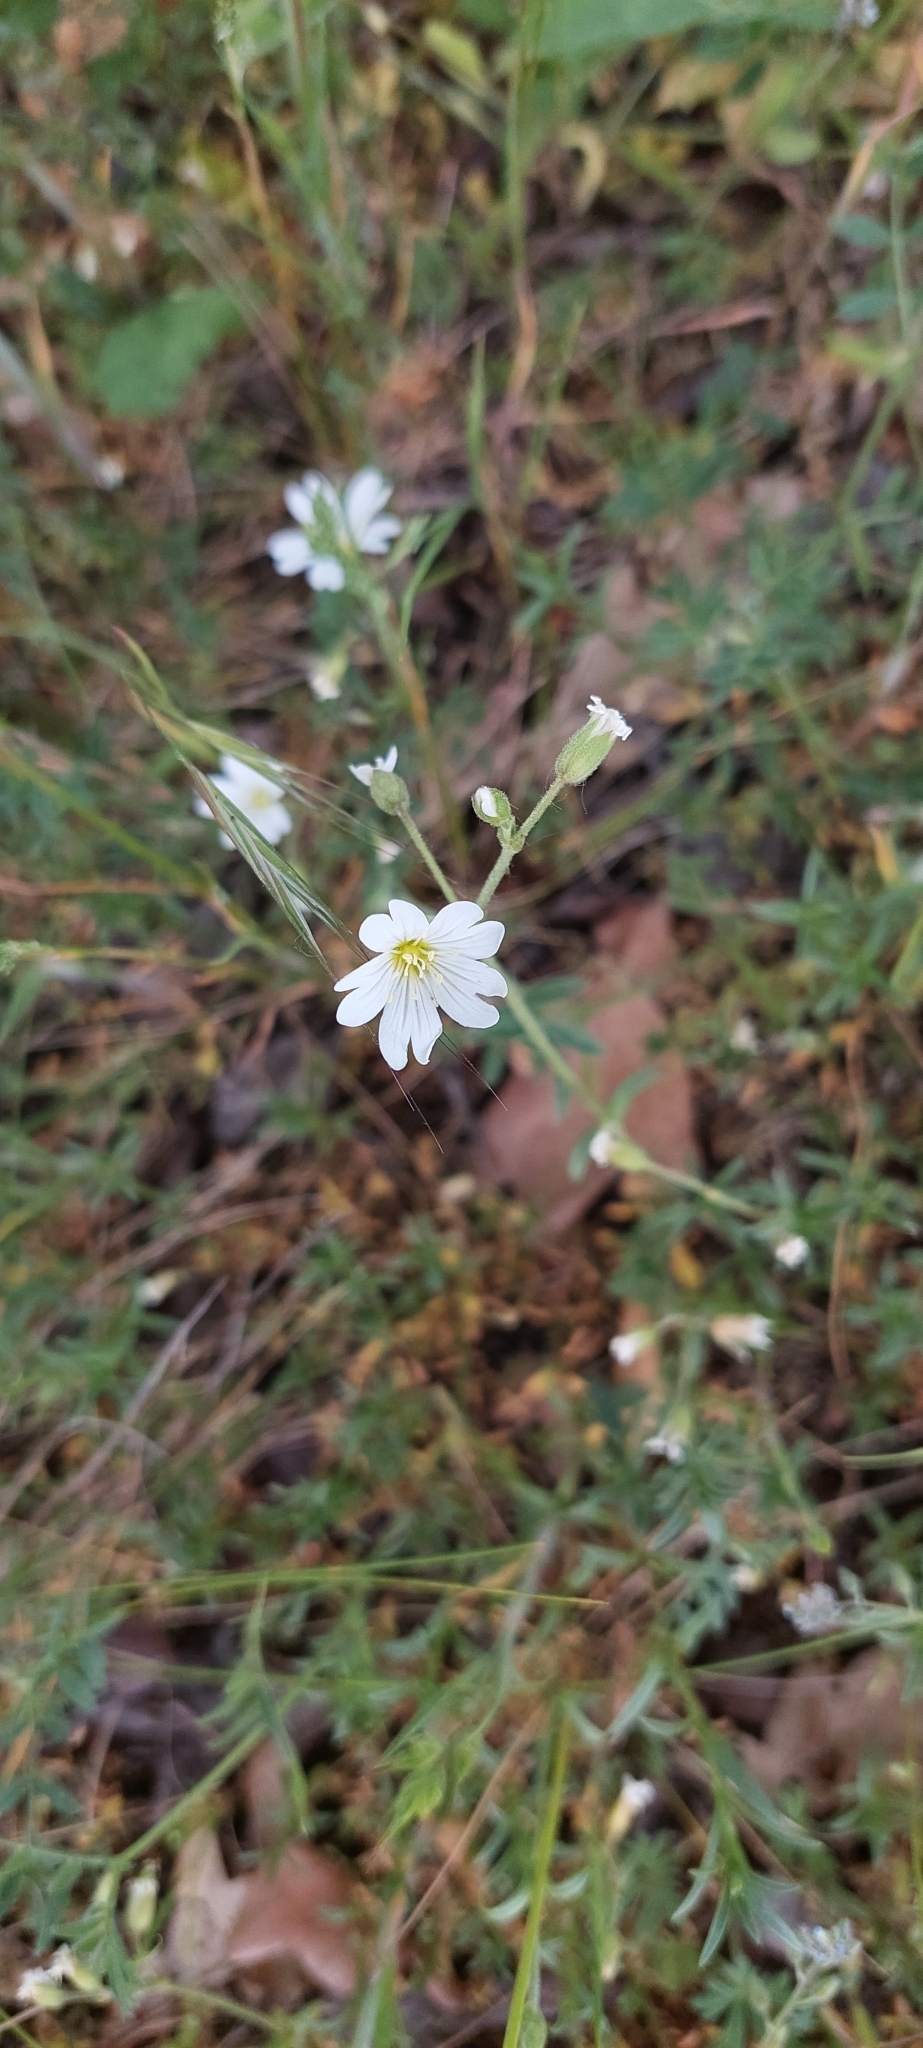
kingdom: Plantae
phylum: Tracheophyta
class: Magnoliopsida
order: Caryophyllales
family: Caryophyllaceae
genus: Cerastium
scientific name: Cerastium arvense
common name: Field mouse-ear
